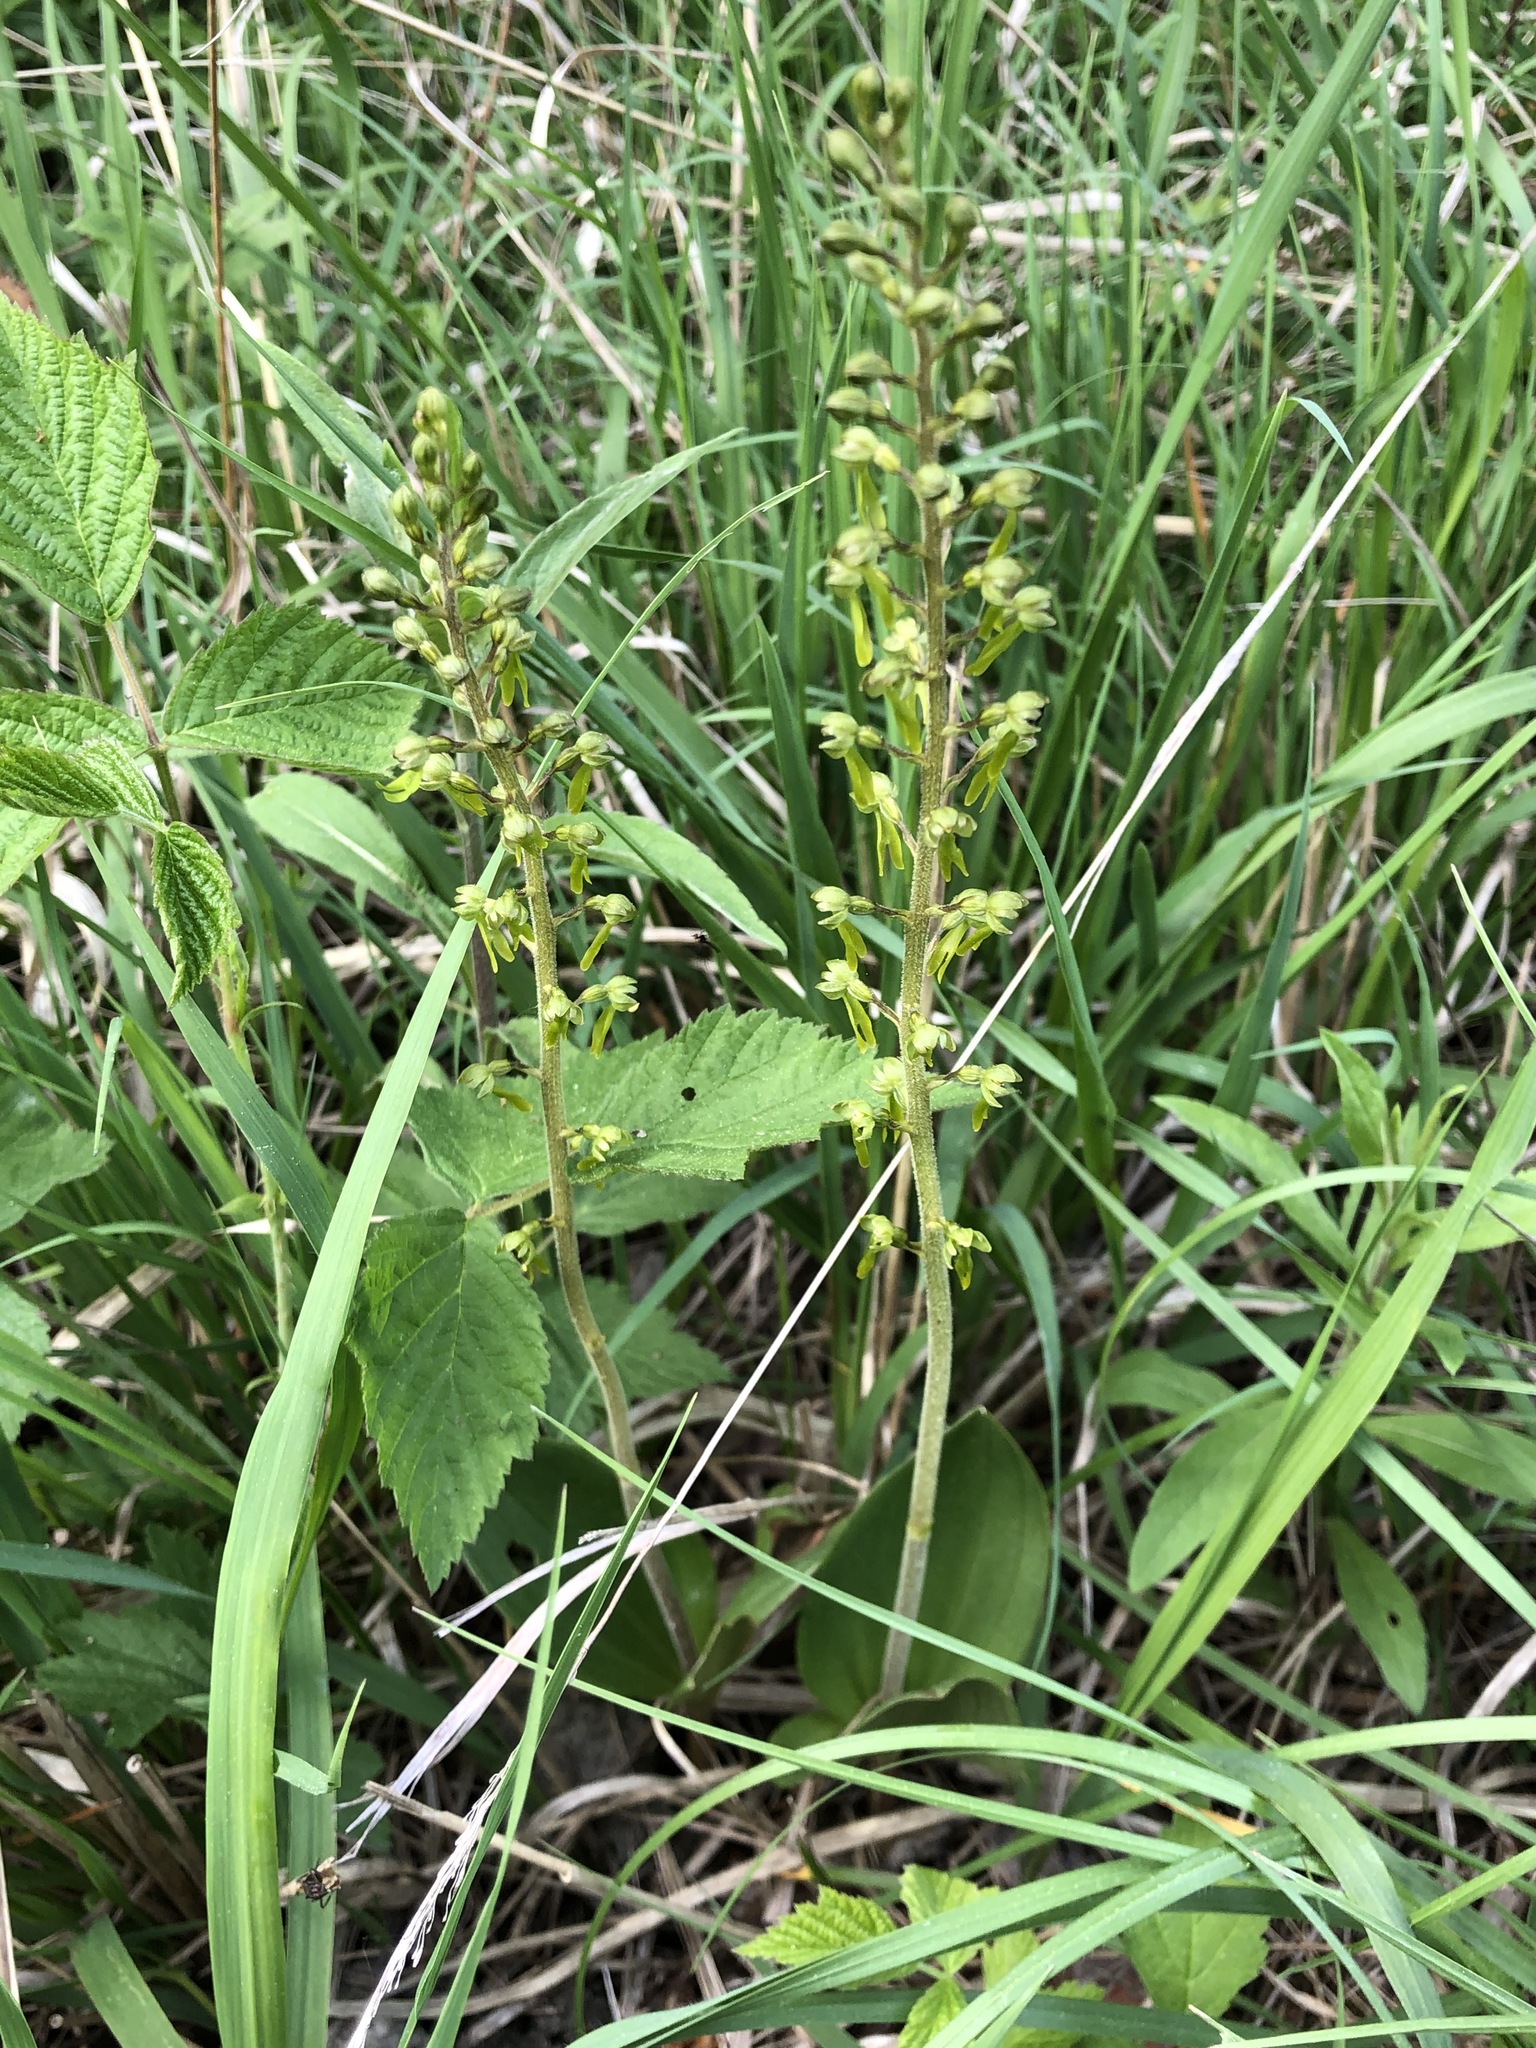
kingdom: Plantae
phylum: Tracheophyta
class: Liliopsida
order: Asparagales
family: Orchidaceae
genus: Neottia
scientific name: Neottia ovata
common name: Common twayblade
